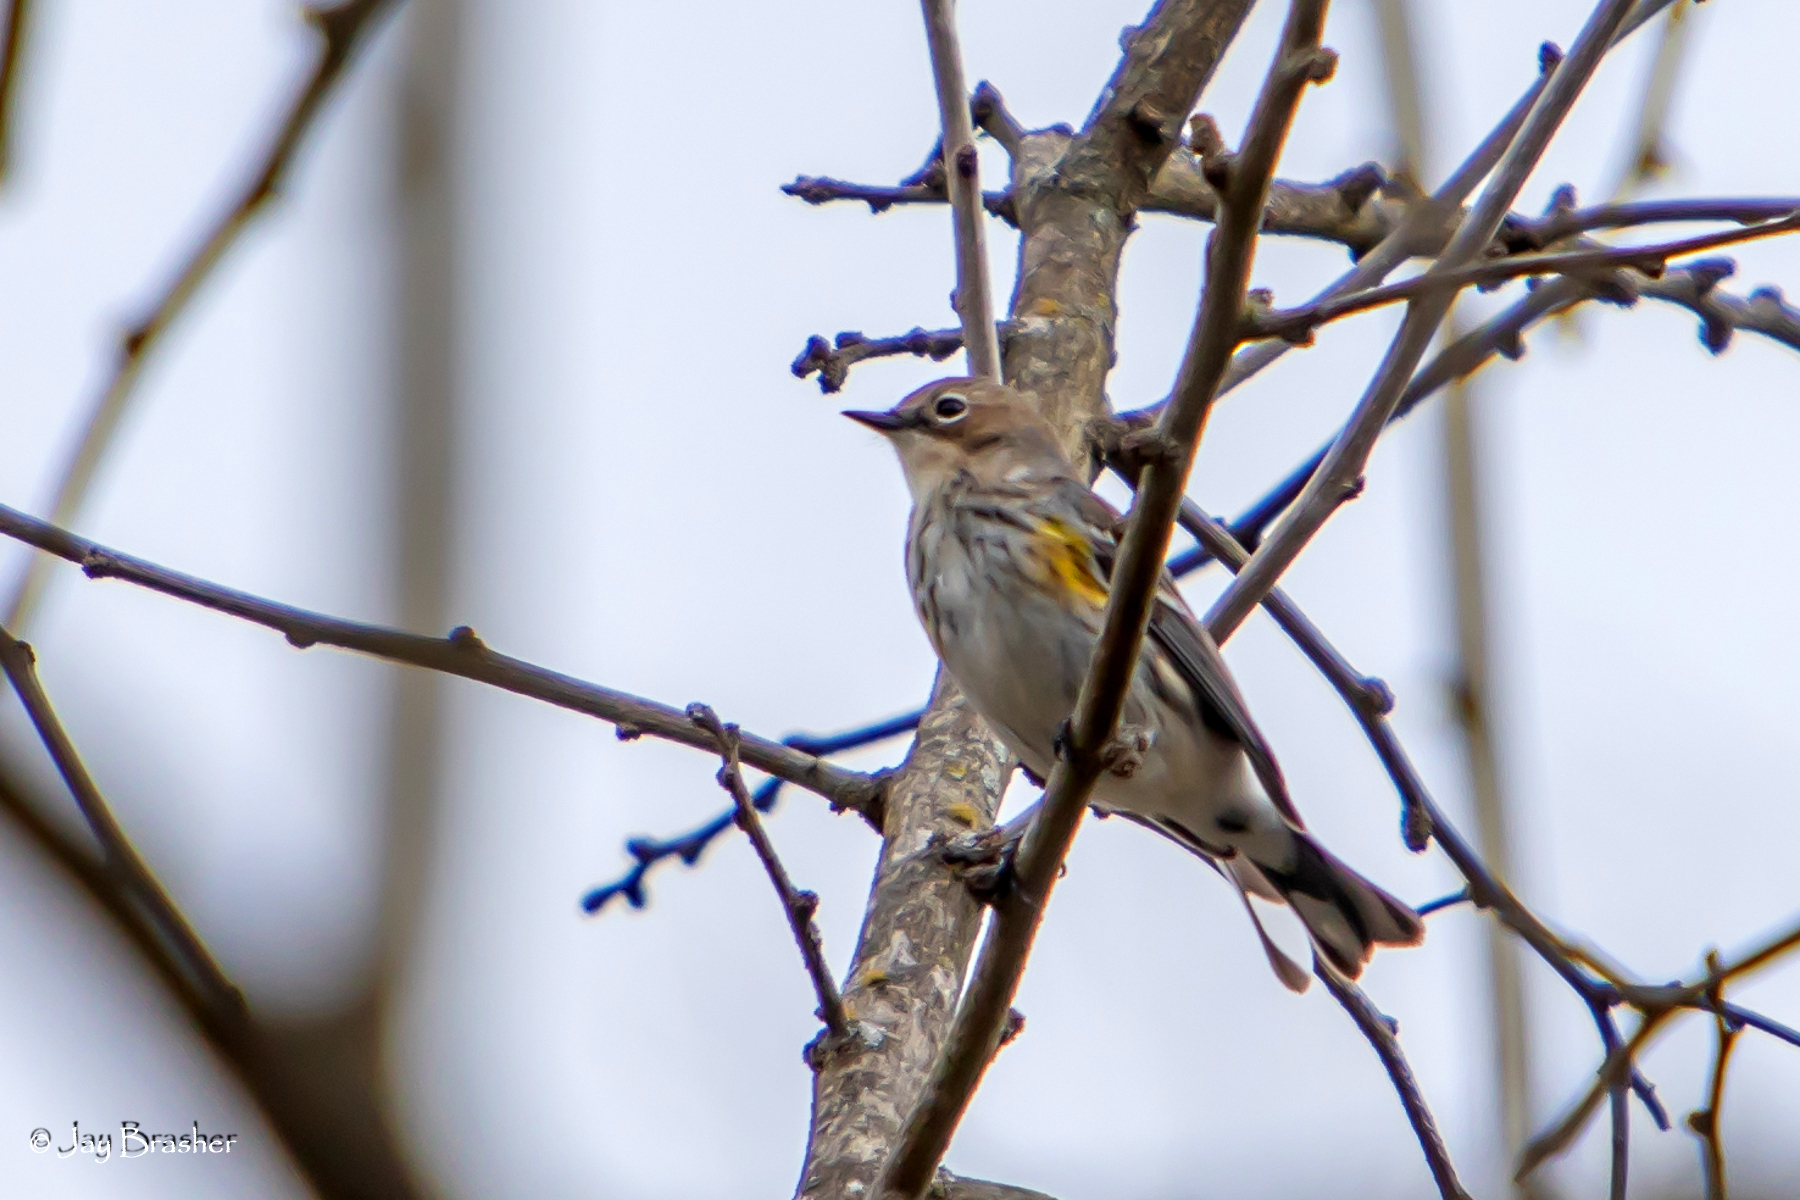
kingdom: Animalia
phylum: Chordata
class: Aves
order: Passeriformes
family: Parulidae
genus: Setophaga
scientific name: Setophaga coronata
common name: Myrtle warbler
